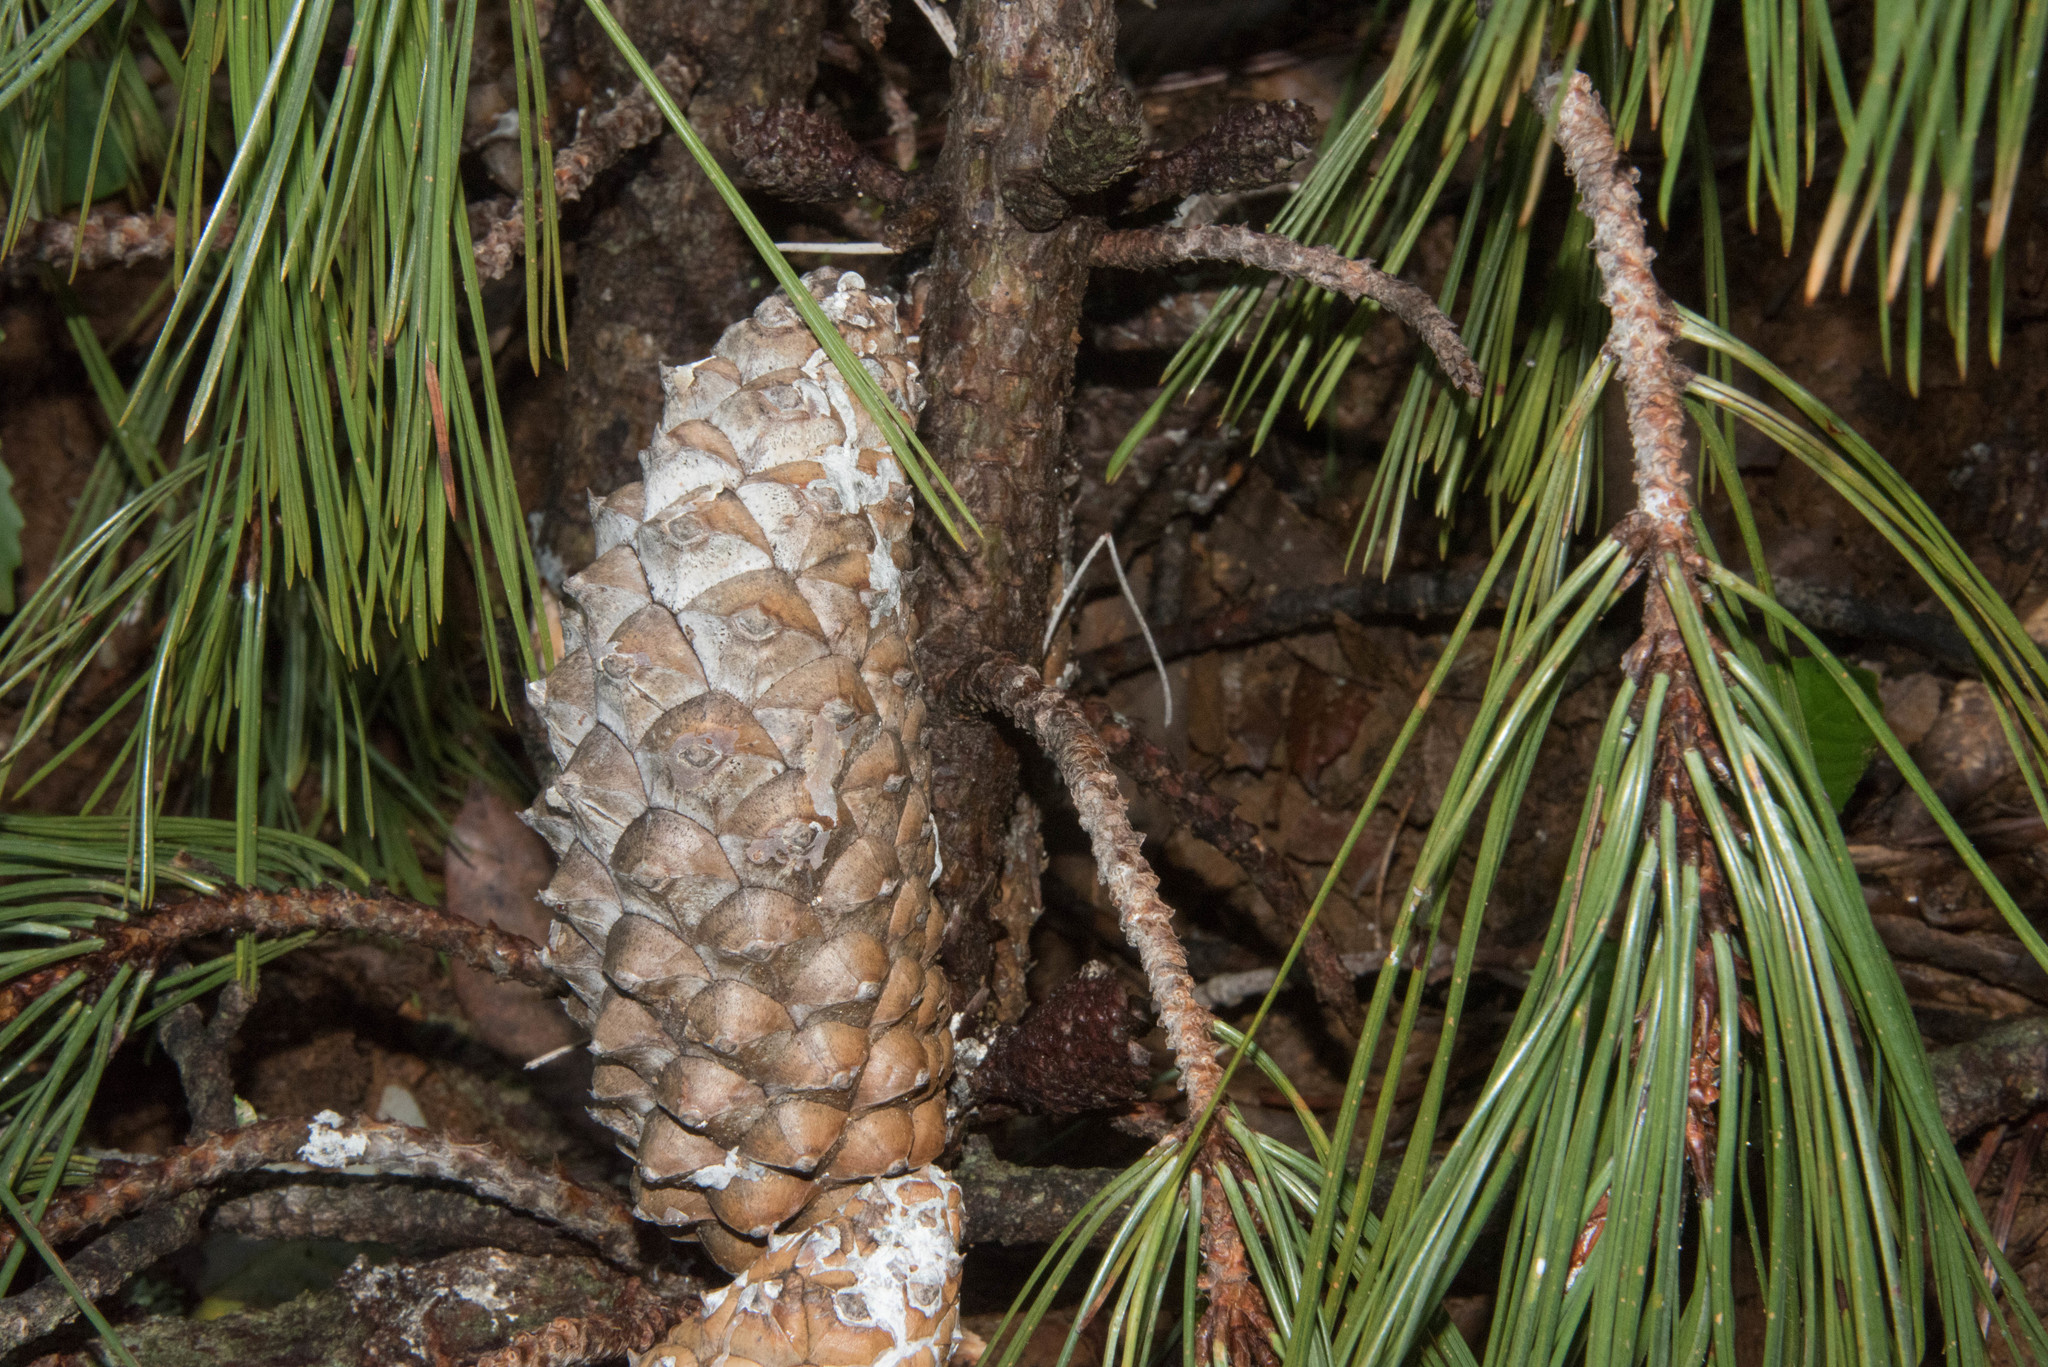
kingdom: Plantae
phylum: Tracheophyta
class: Pinopsida
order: Pinales
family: Pinaceae
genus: Pinus
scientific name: Pinus attenuata
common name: Knobcone pine
